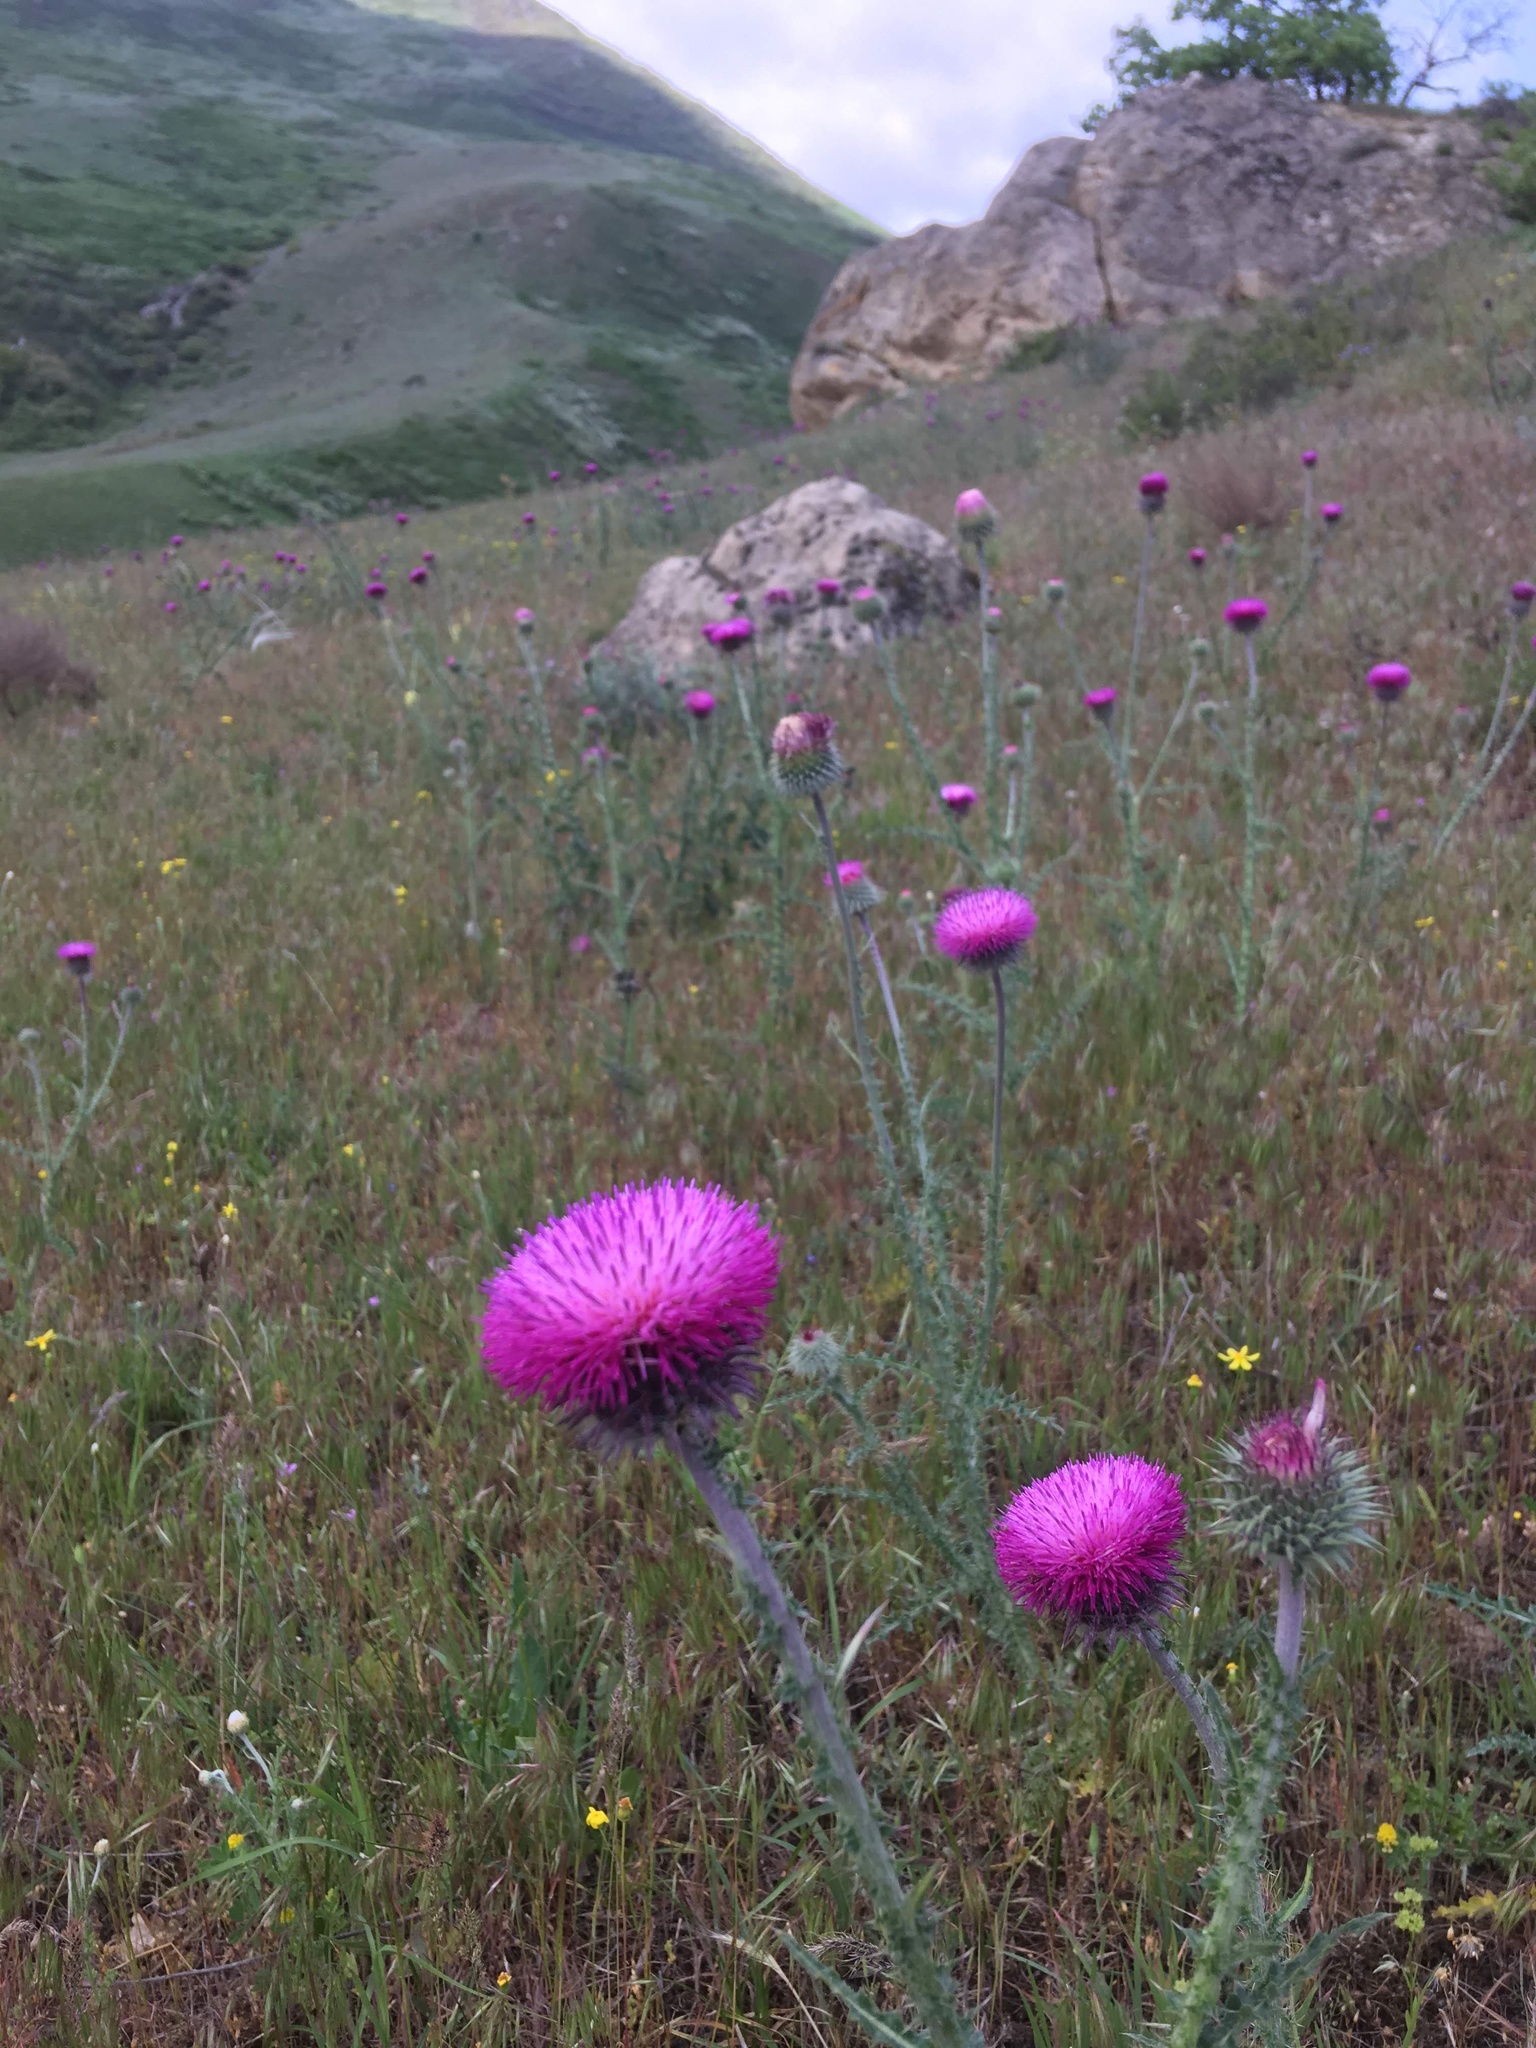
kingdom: Plantae
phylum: Tracheophyta
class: Magnoliopsida
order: Asterales
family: Asteraceae
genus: Carduus
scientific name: Carduus uncinatus
